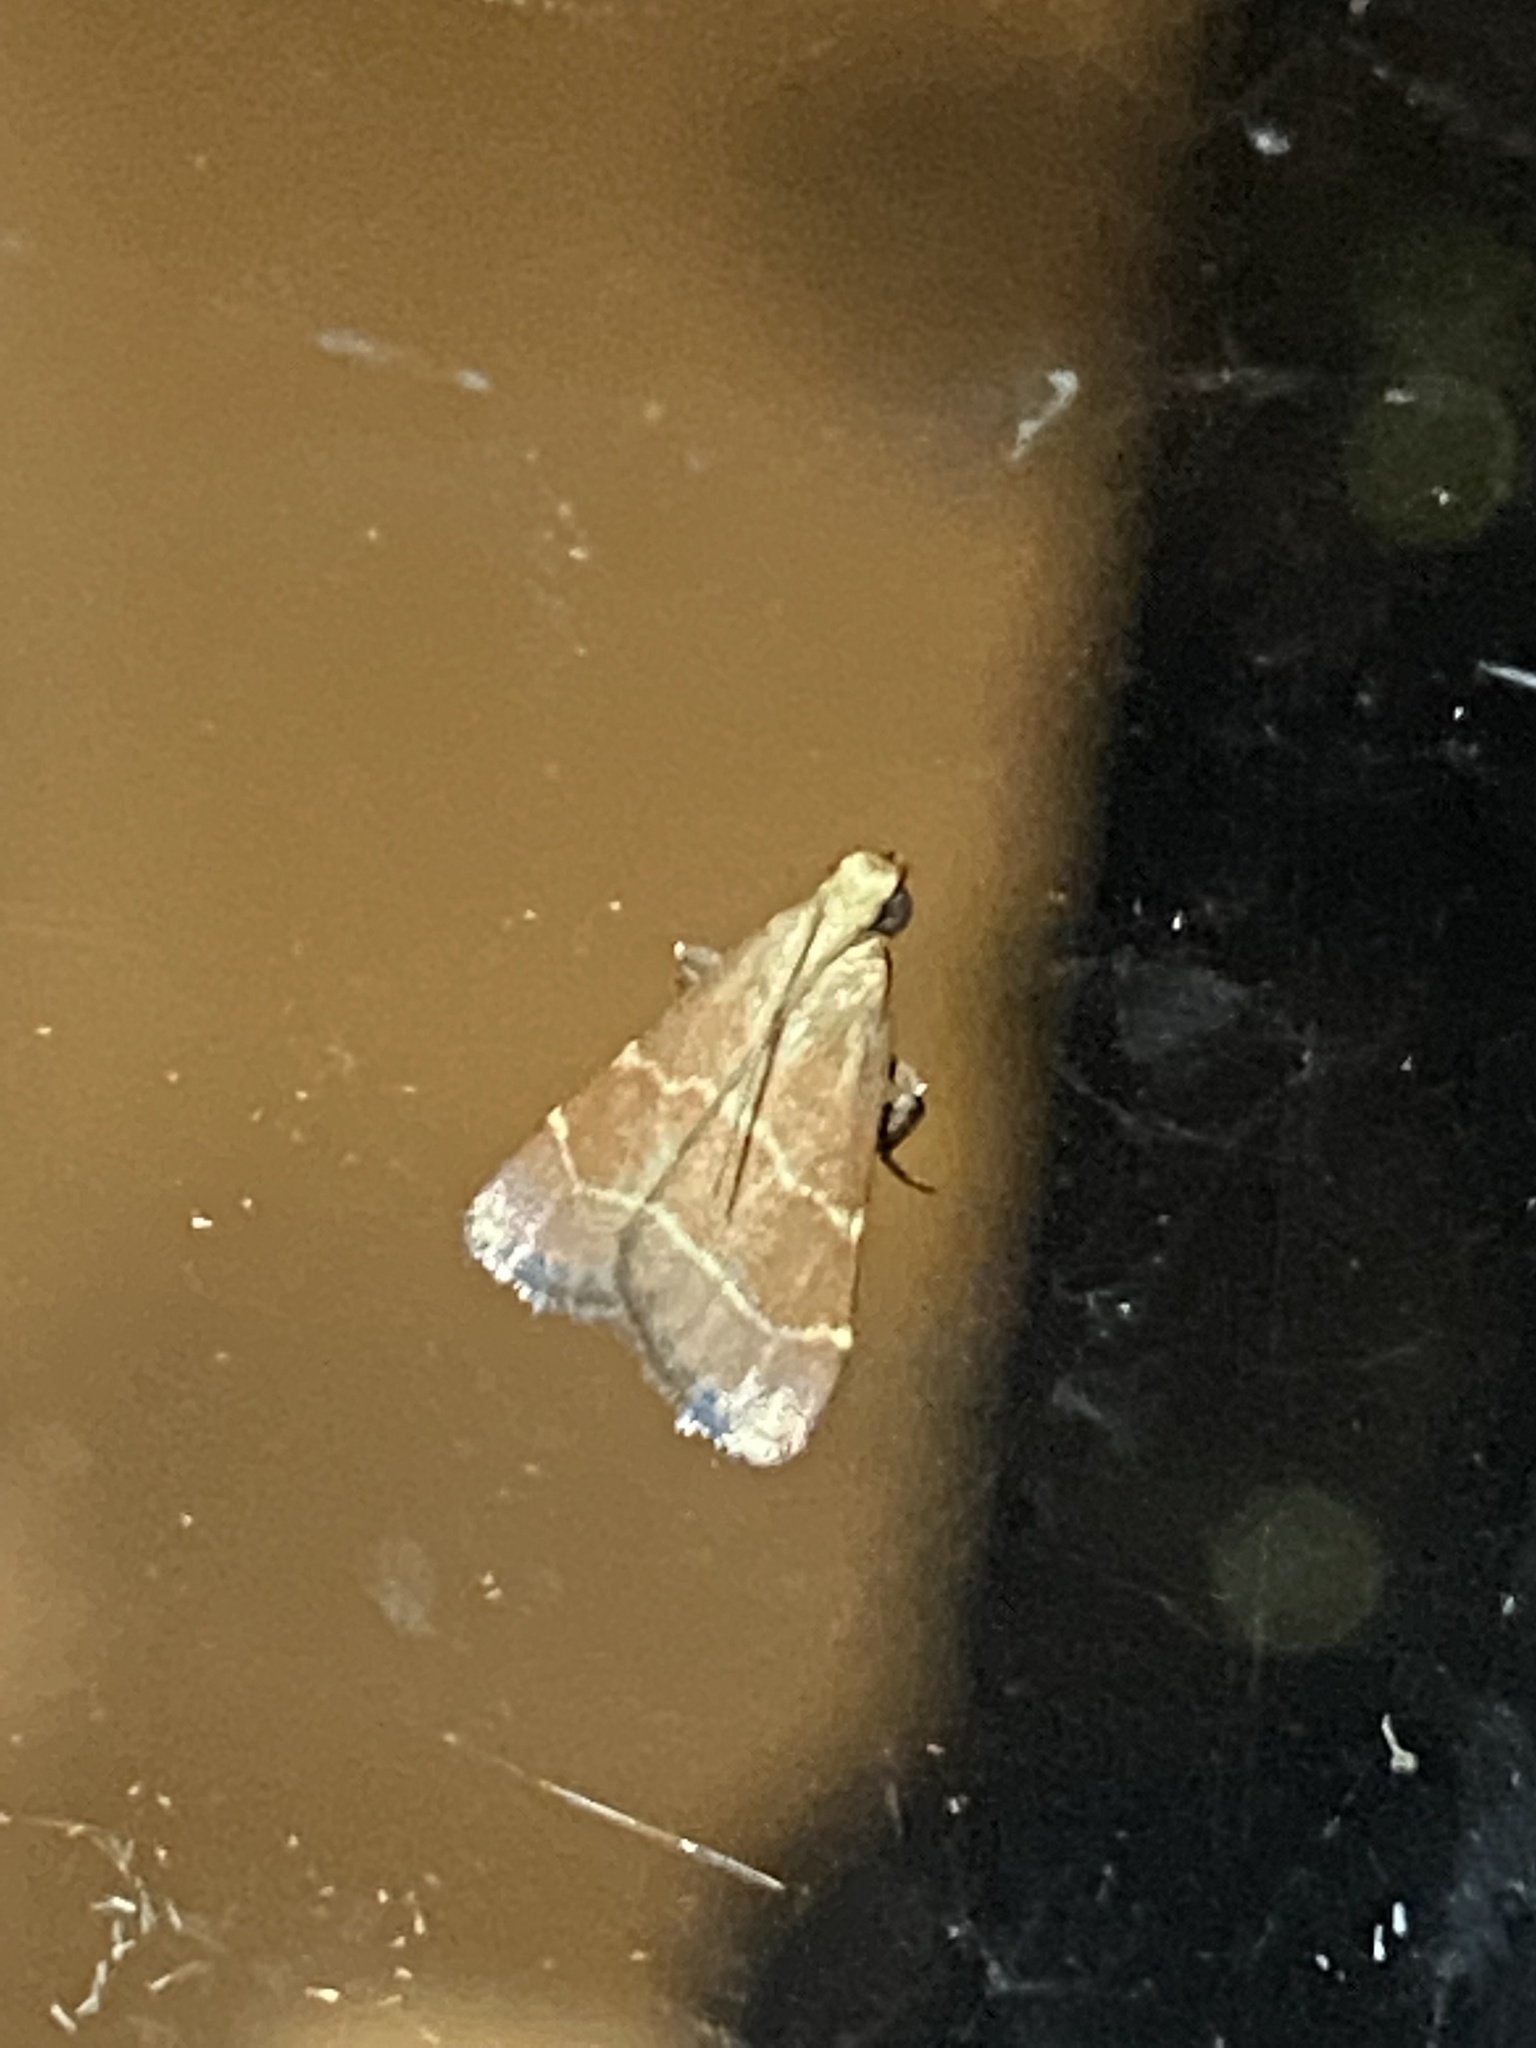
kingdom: Animalia
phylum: Arthropoda
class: Insecta
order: Lepidoptera
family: Pyralidae
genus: Arta
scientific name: Arta statalis
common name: Posturing arta moth
